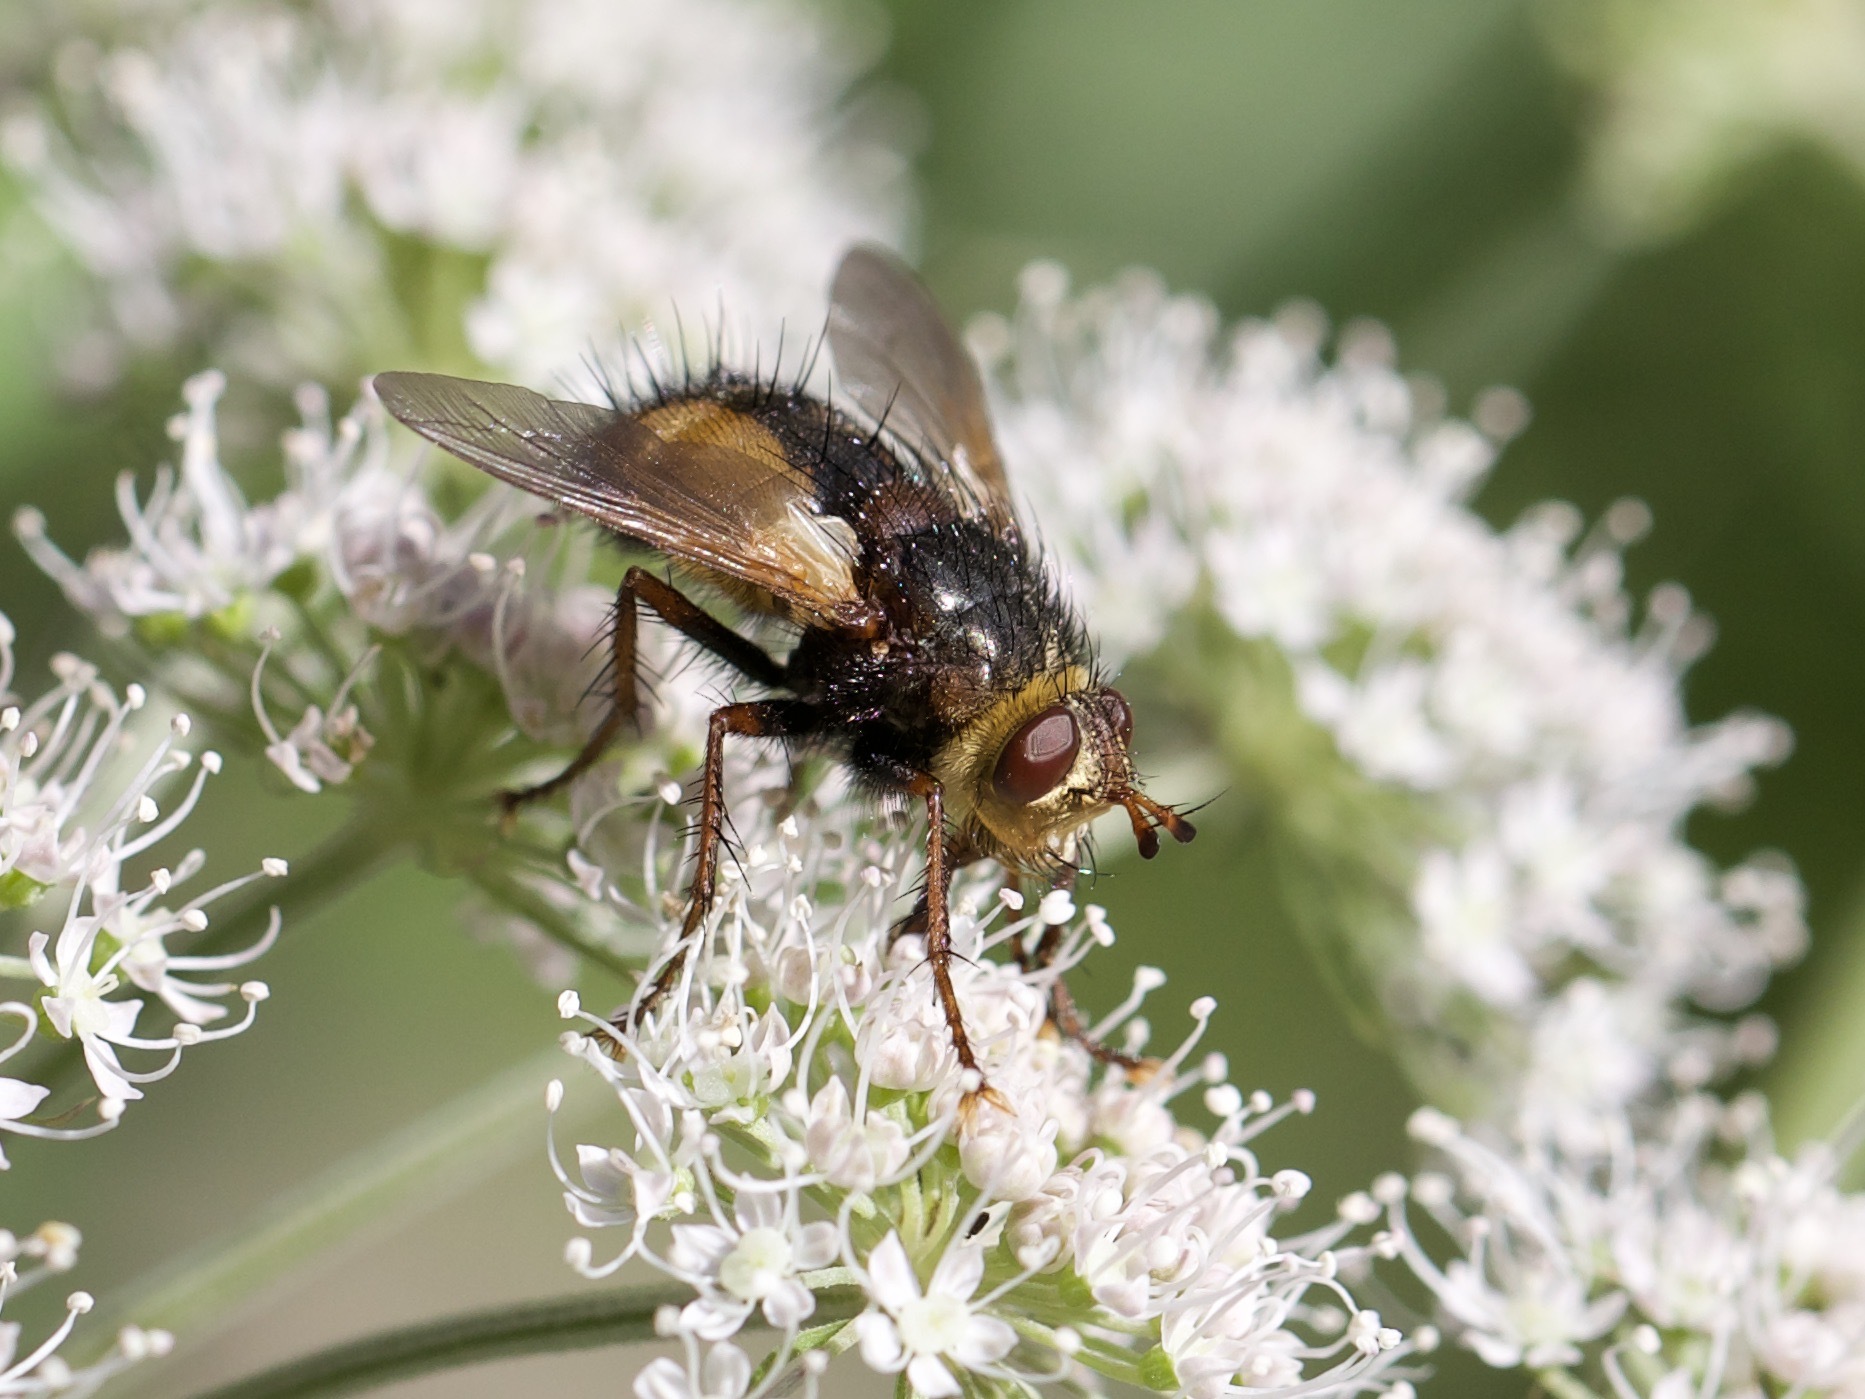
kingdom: Animalia
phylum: Arthropoda
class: Insecta
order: Diptera
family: Tachinidae
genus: Tachina
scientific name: Tachina fera
